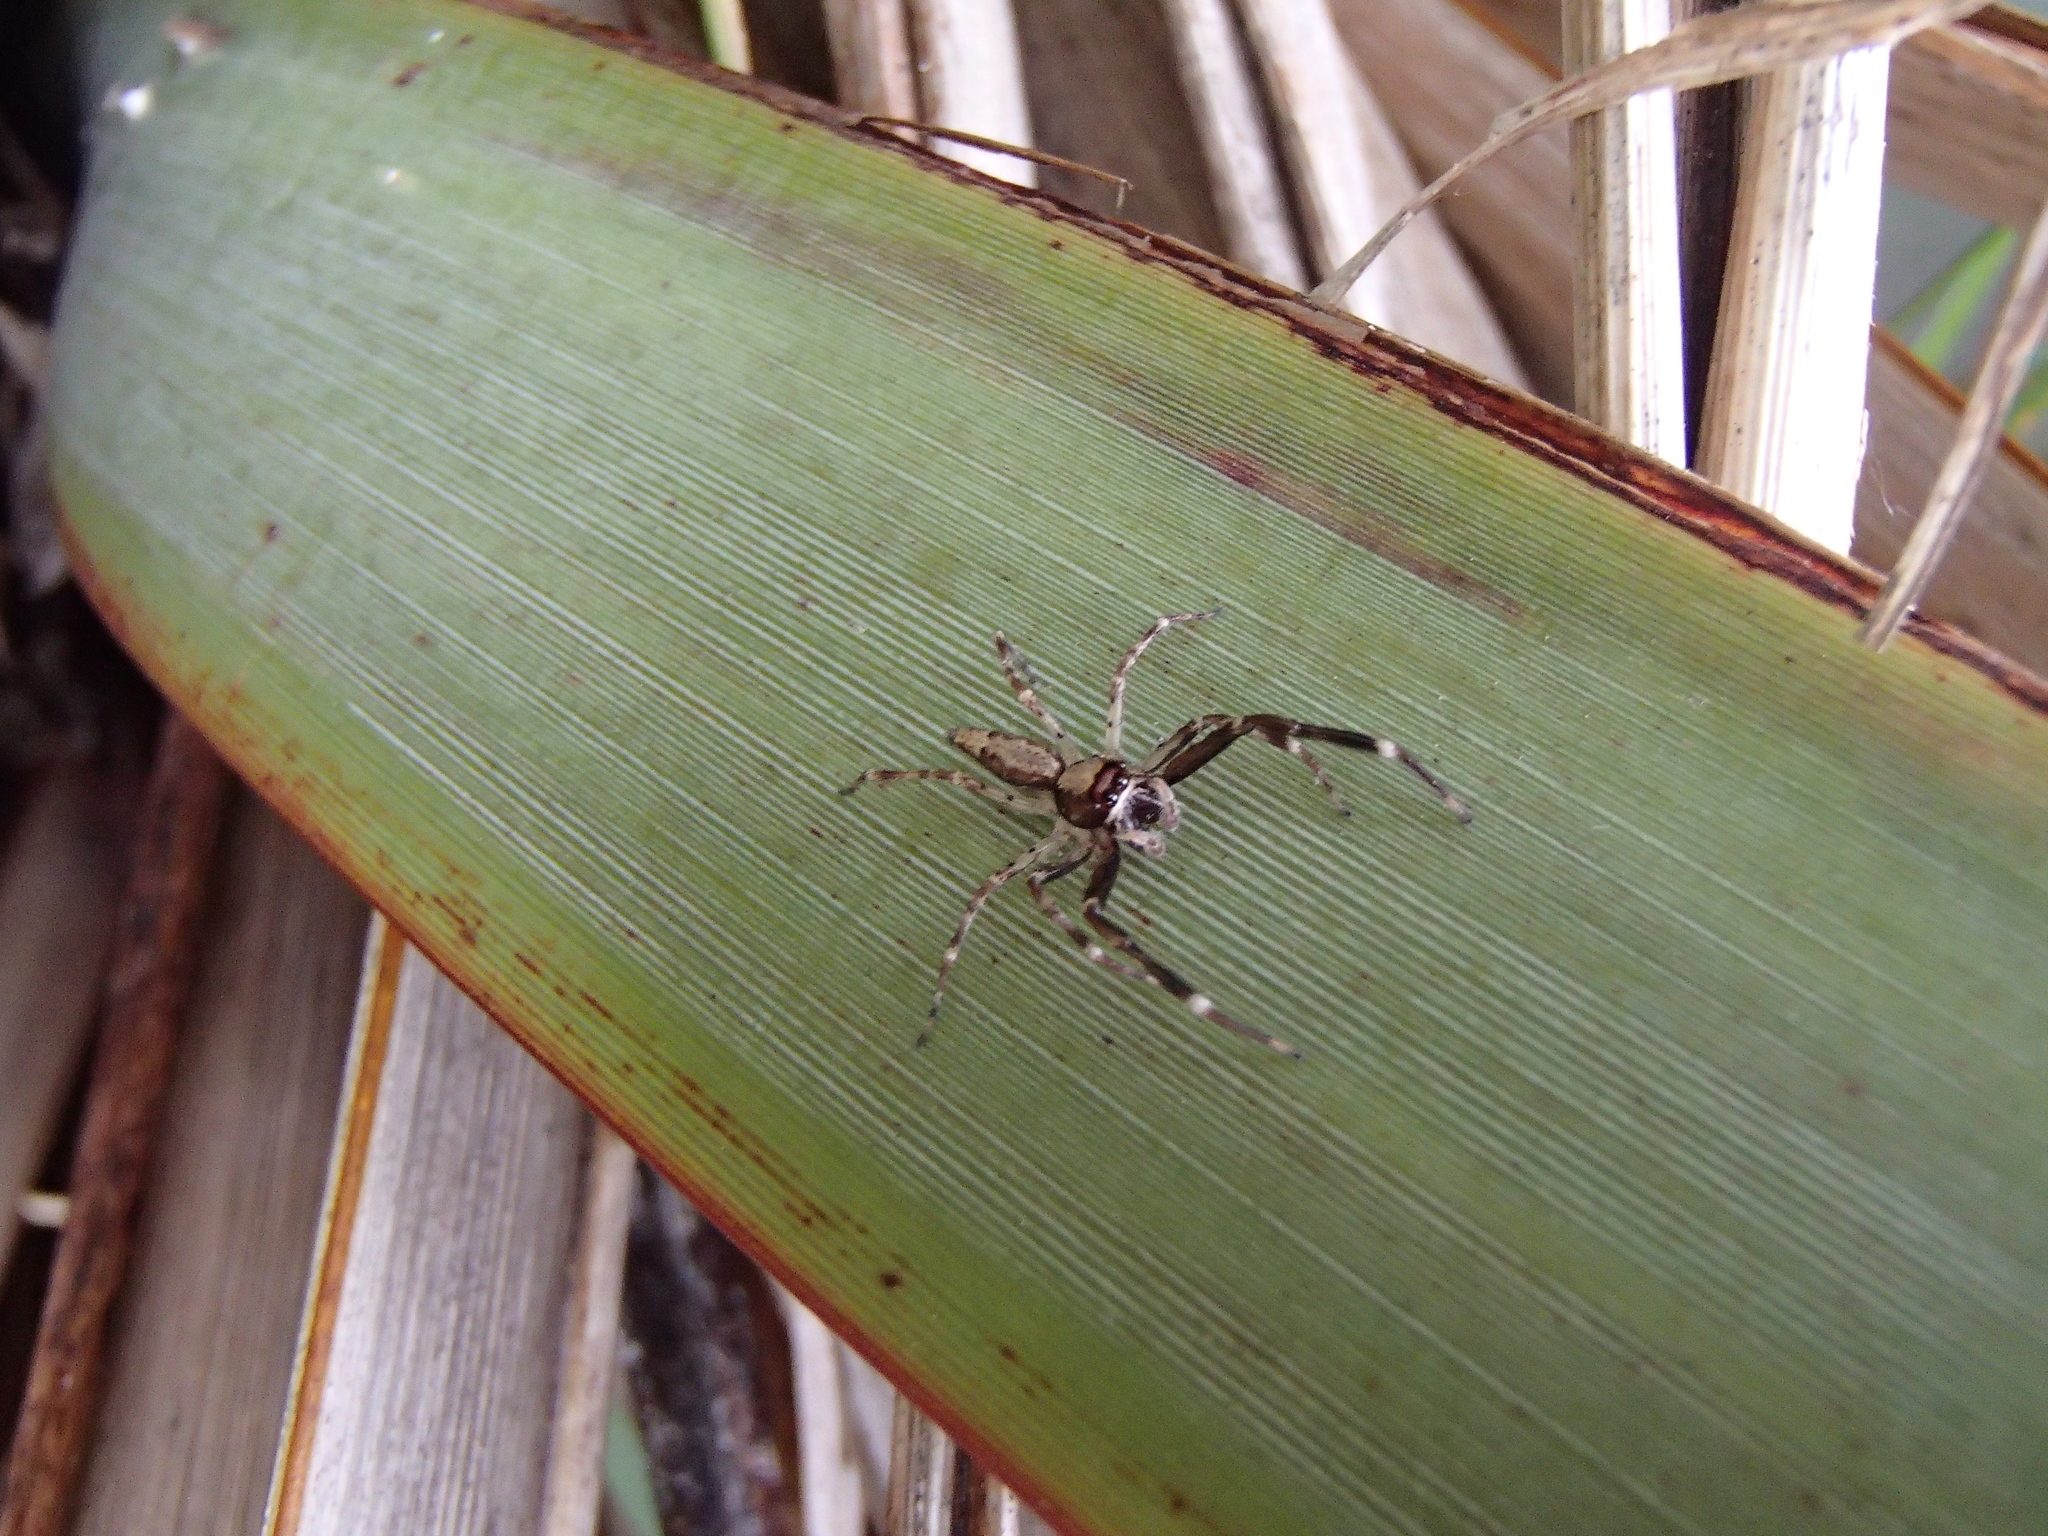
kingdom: Animalia
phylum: Arthropoda
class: Arachnida
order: Araneae
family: Salticidae
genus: Helpis
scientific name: Helpis minitabunda
